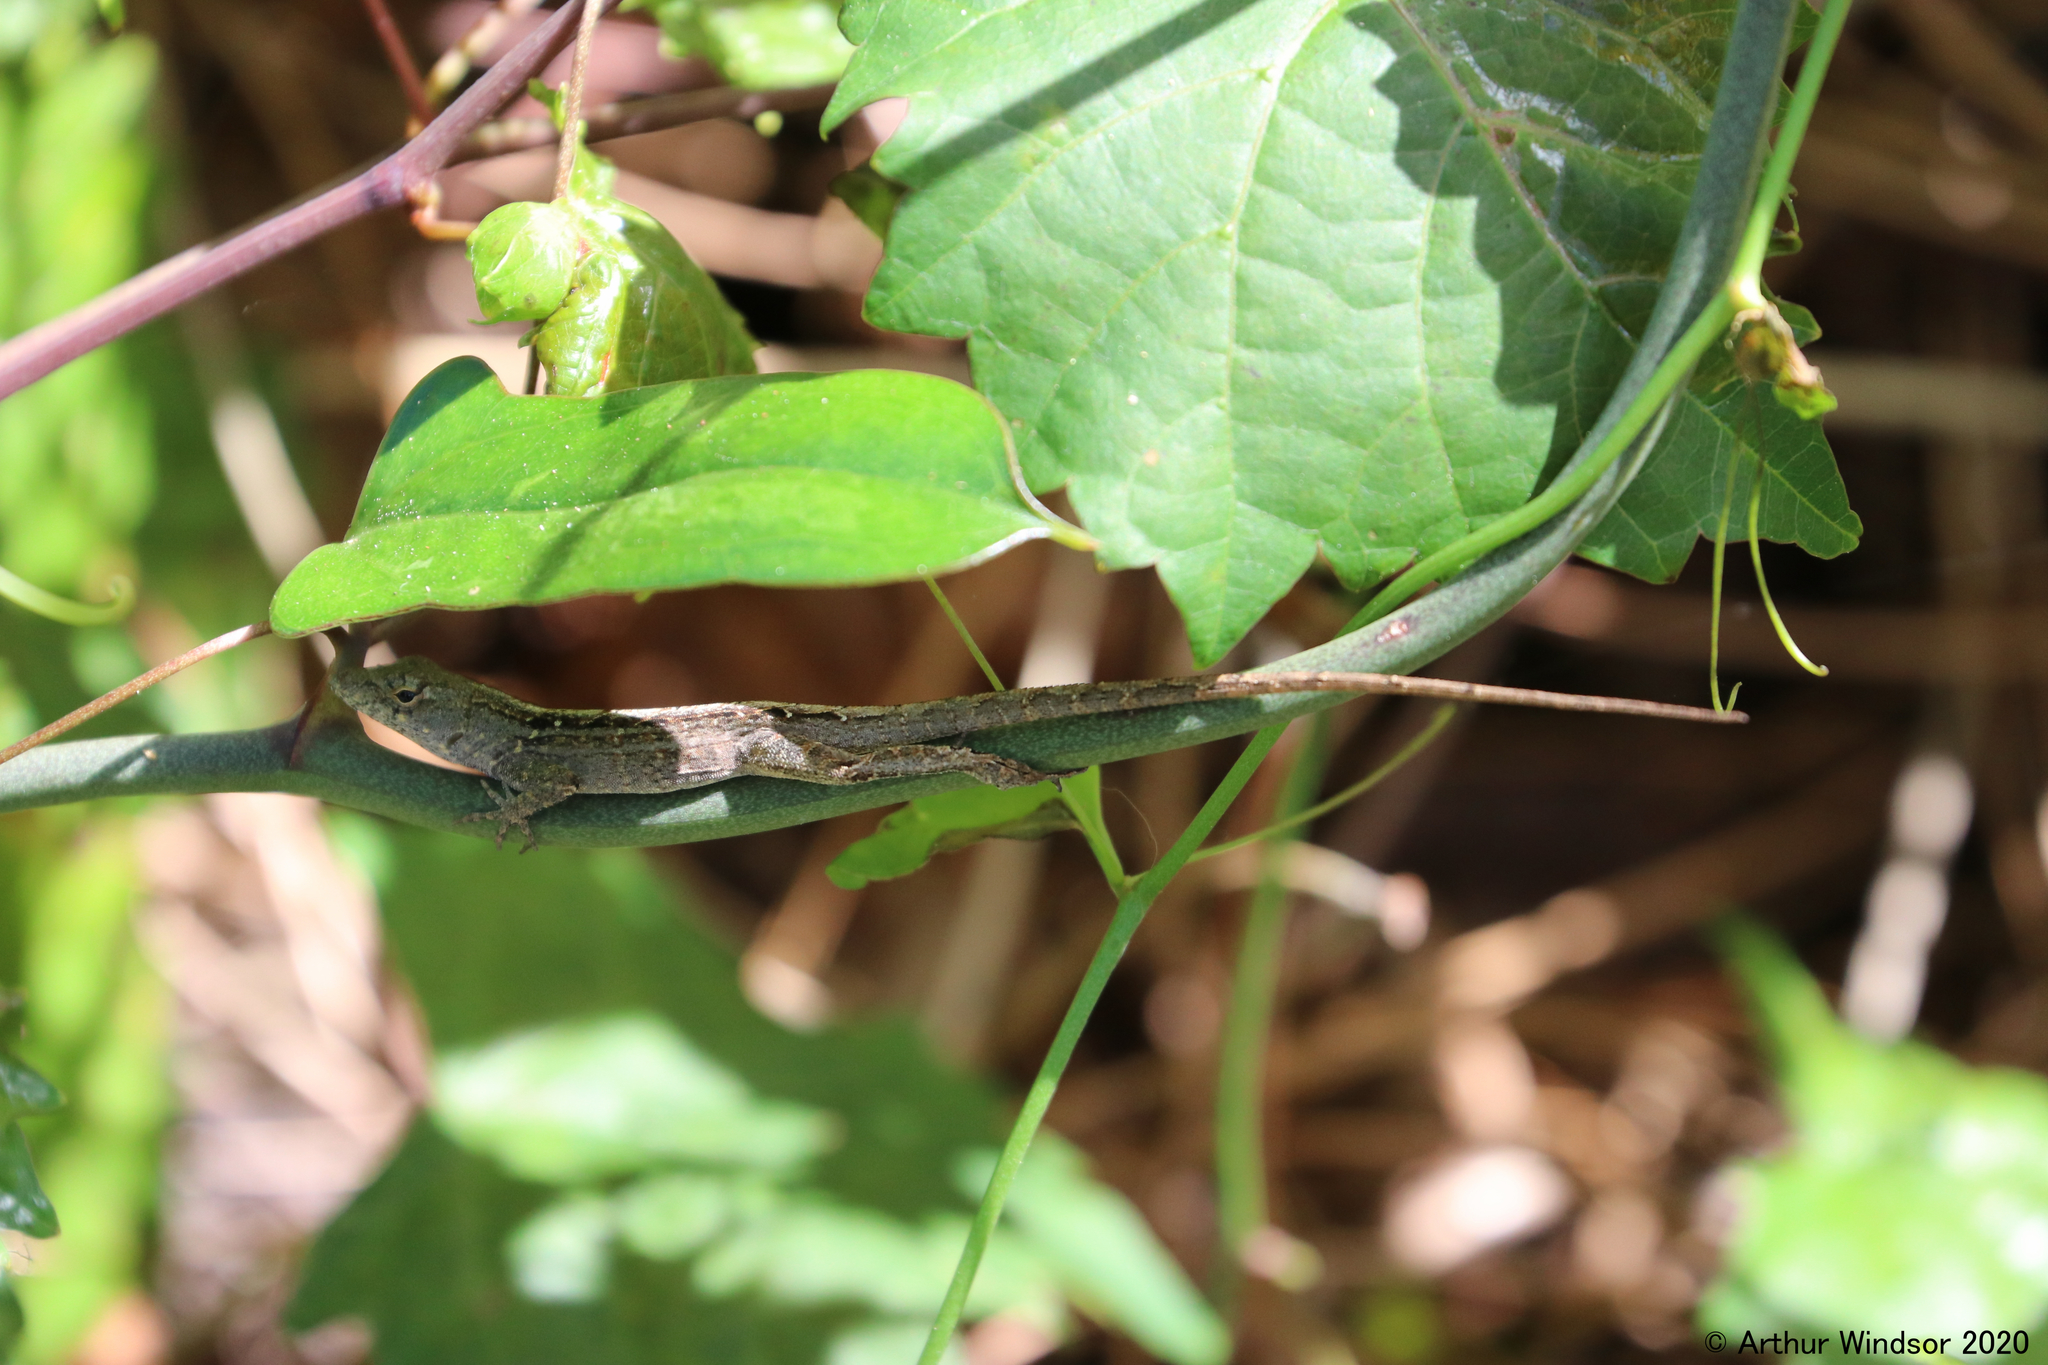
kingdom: Animalia
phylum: Chordata
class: Squamata
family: Dactyloidae
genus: Anolis
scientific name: Anolis sagrei
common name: Brown anole
